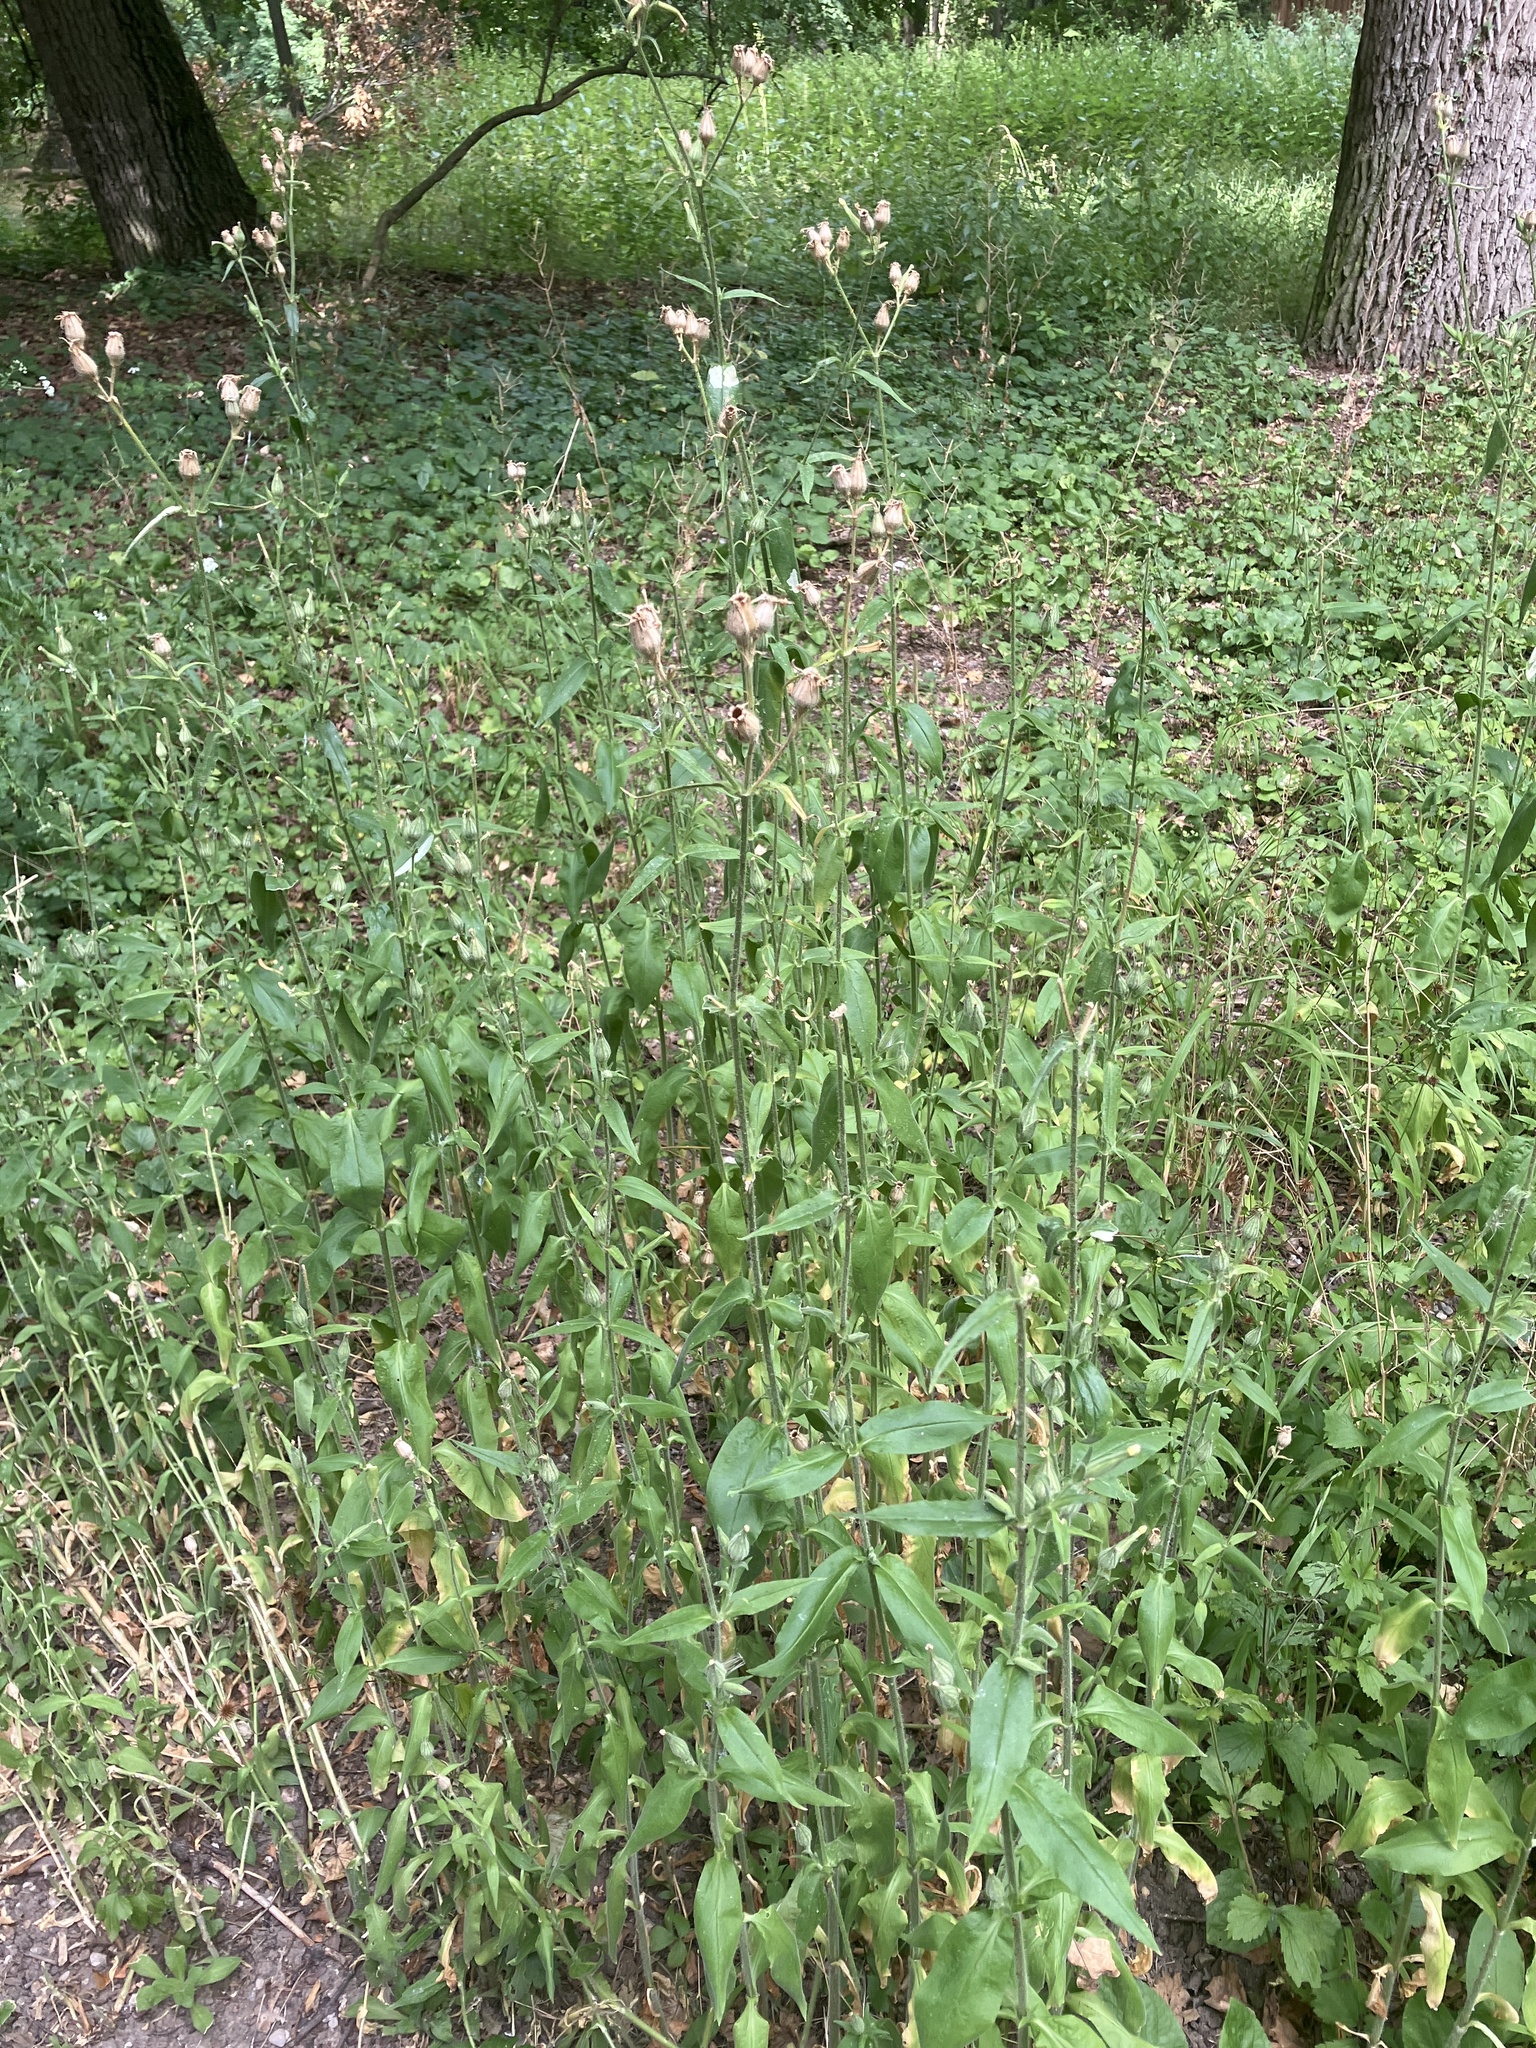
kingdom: Plantae
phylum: Tracheophyta
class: Magnoliopsida
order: Caryophyllales
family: Caryophyllaceae
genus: Silene
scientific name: Silene noctiflora
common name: Night-flowering catchfly
